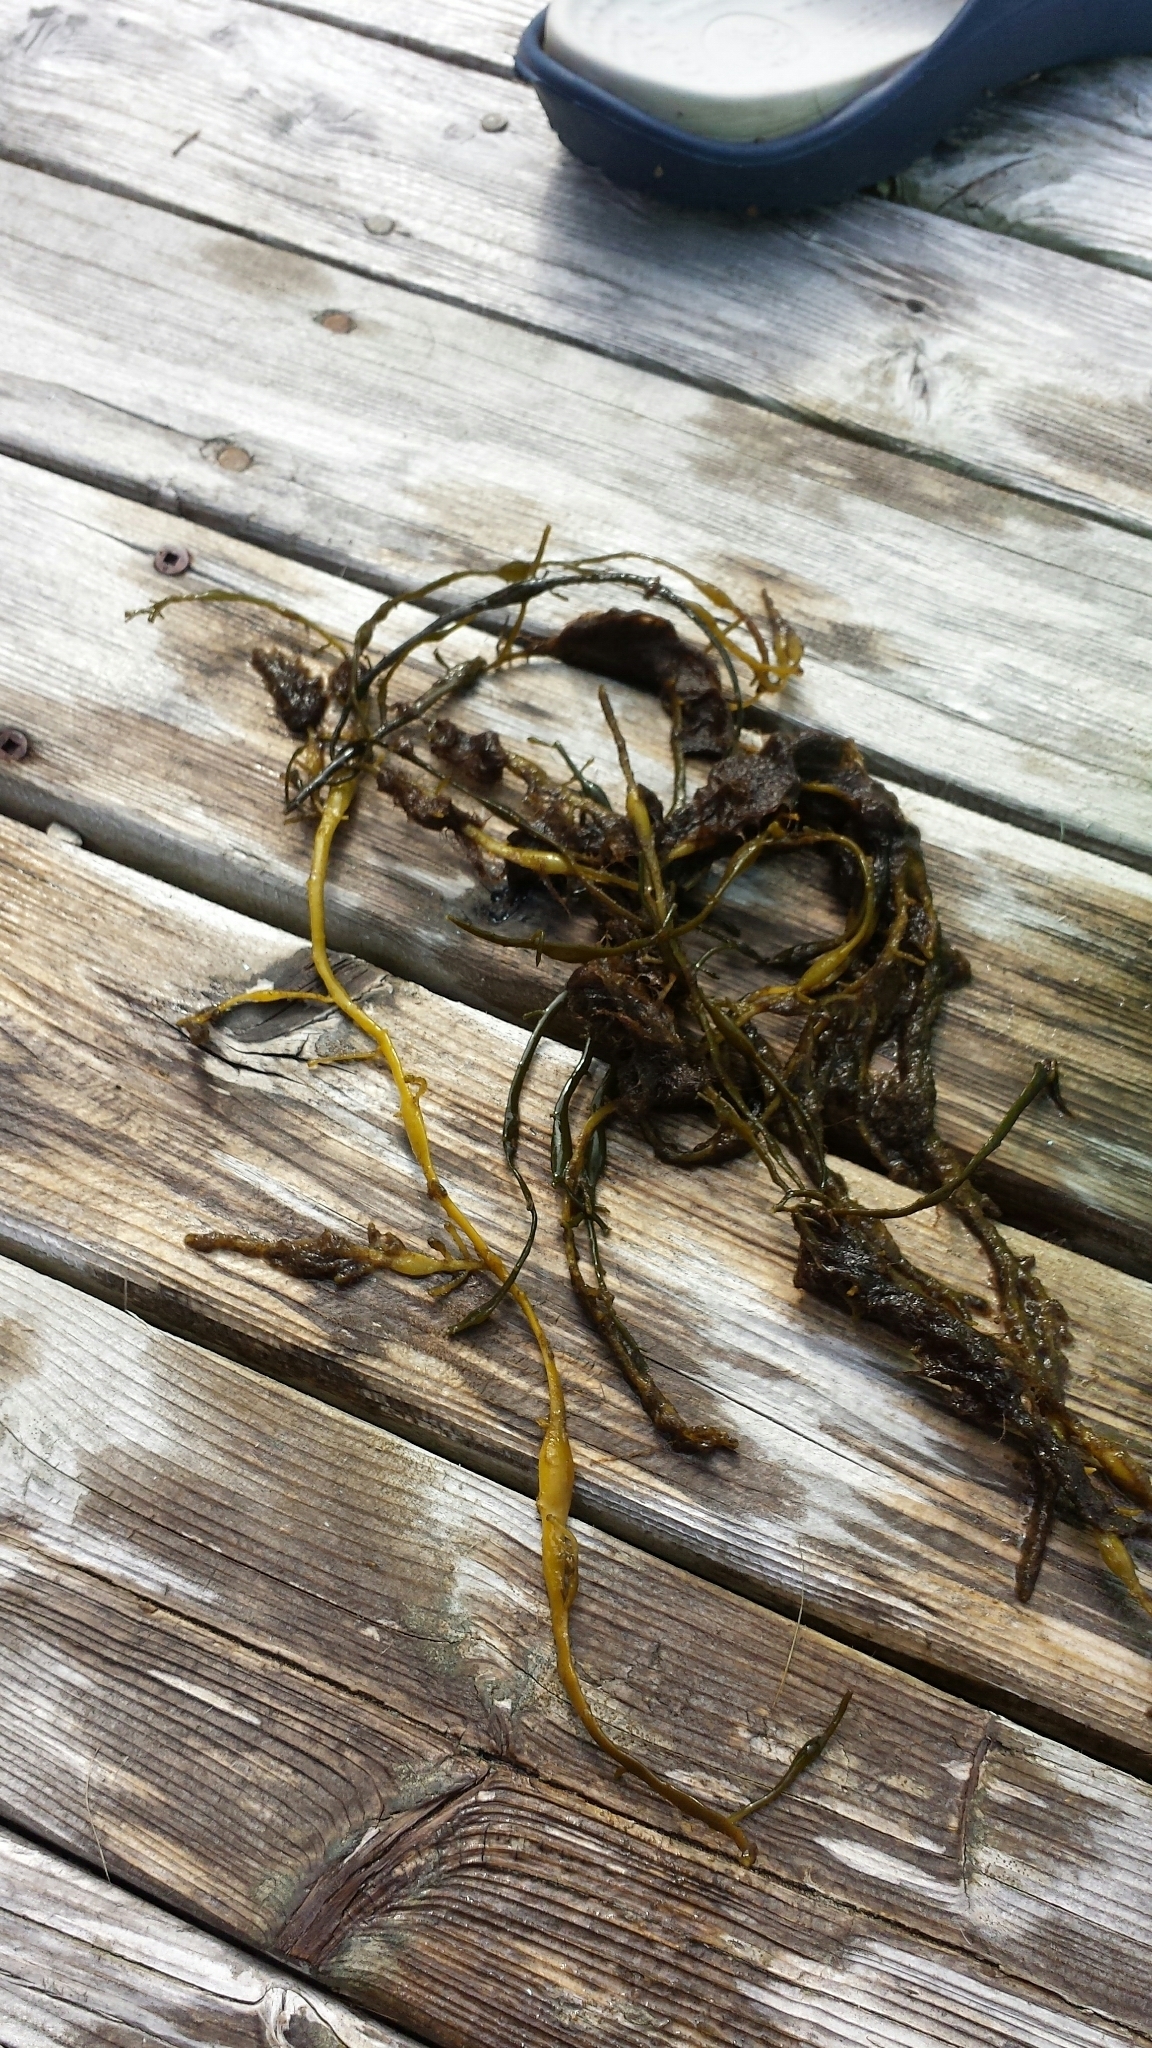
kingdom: Chromista
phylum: Ochrophyta
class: Phaeophyceae
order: Fucales
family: Fucaceae
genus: Ascophyllum
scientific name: Ascophyllum nodosum
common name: Knotted wrack
